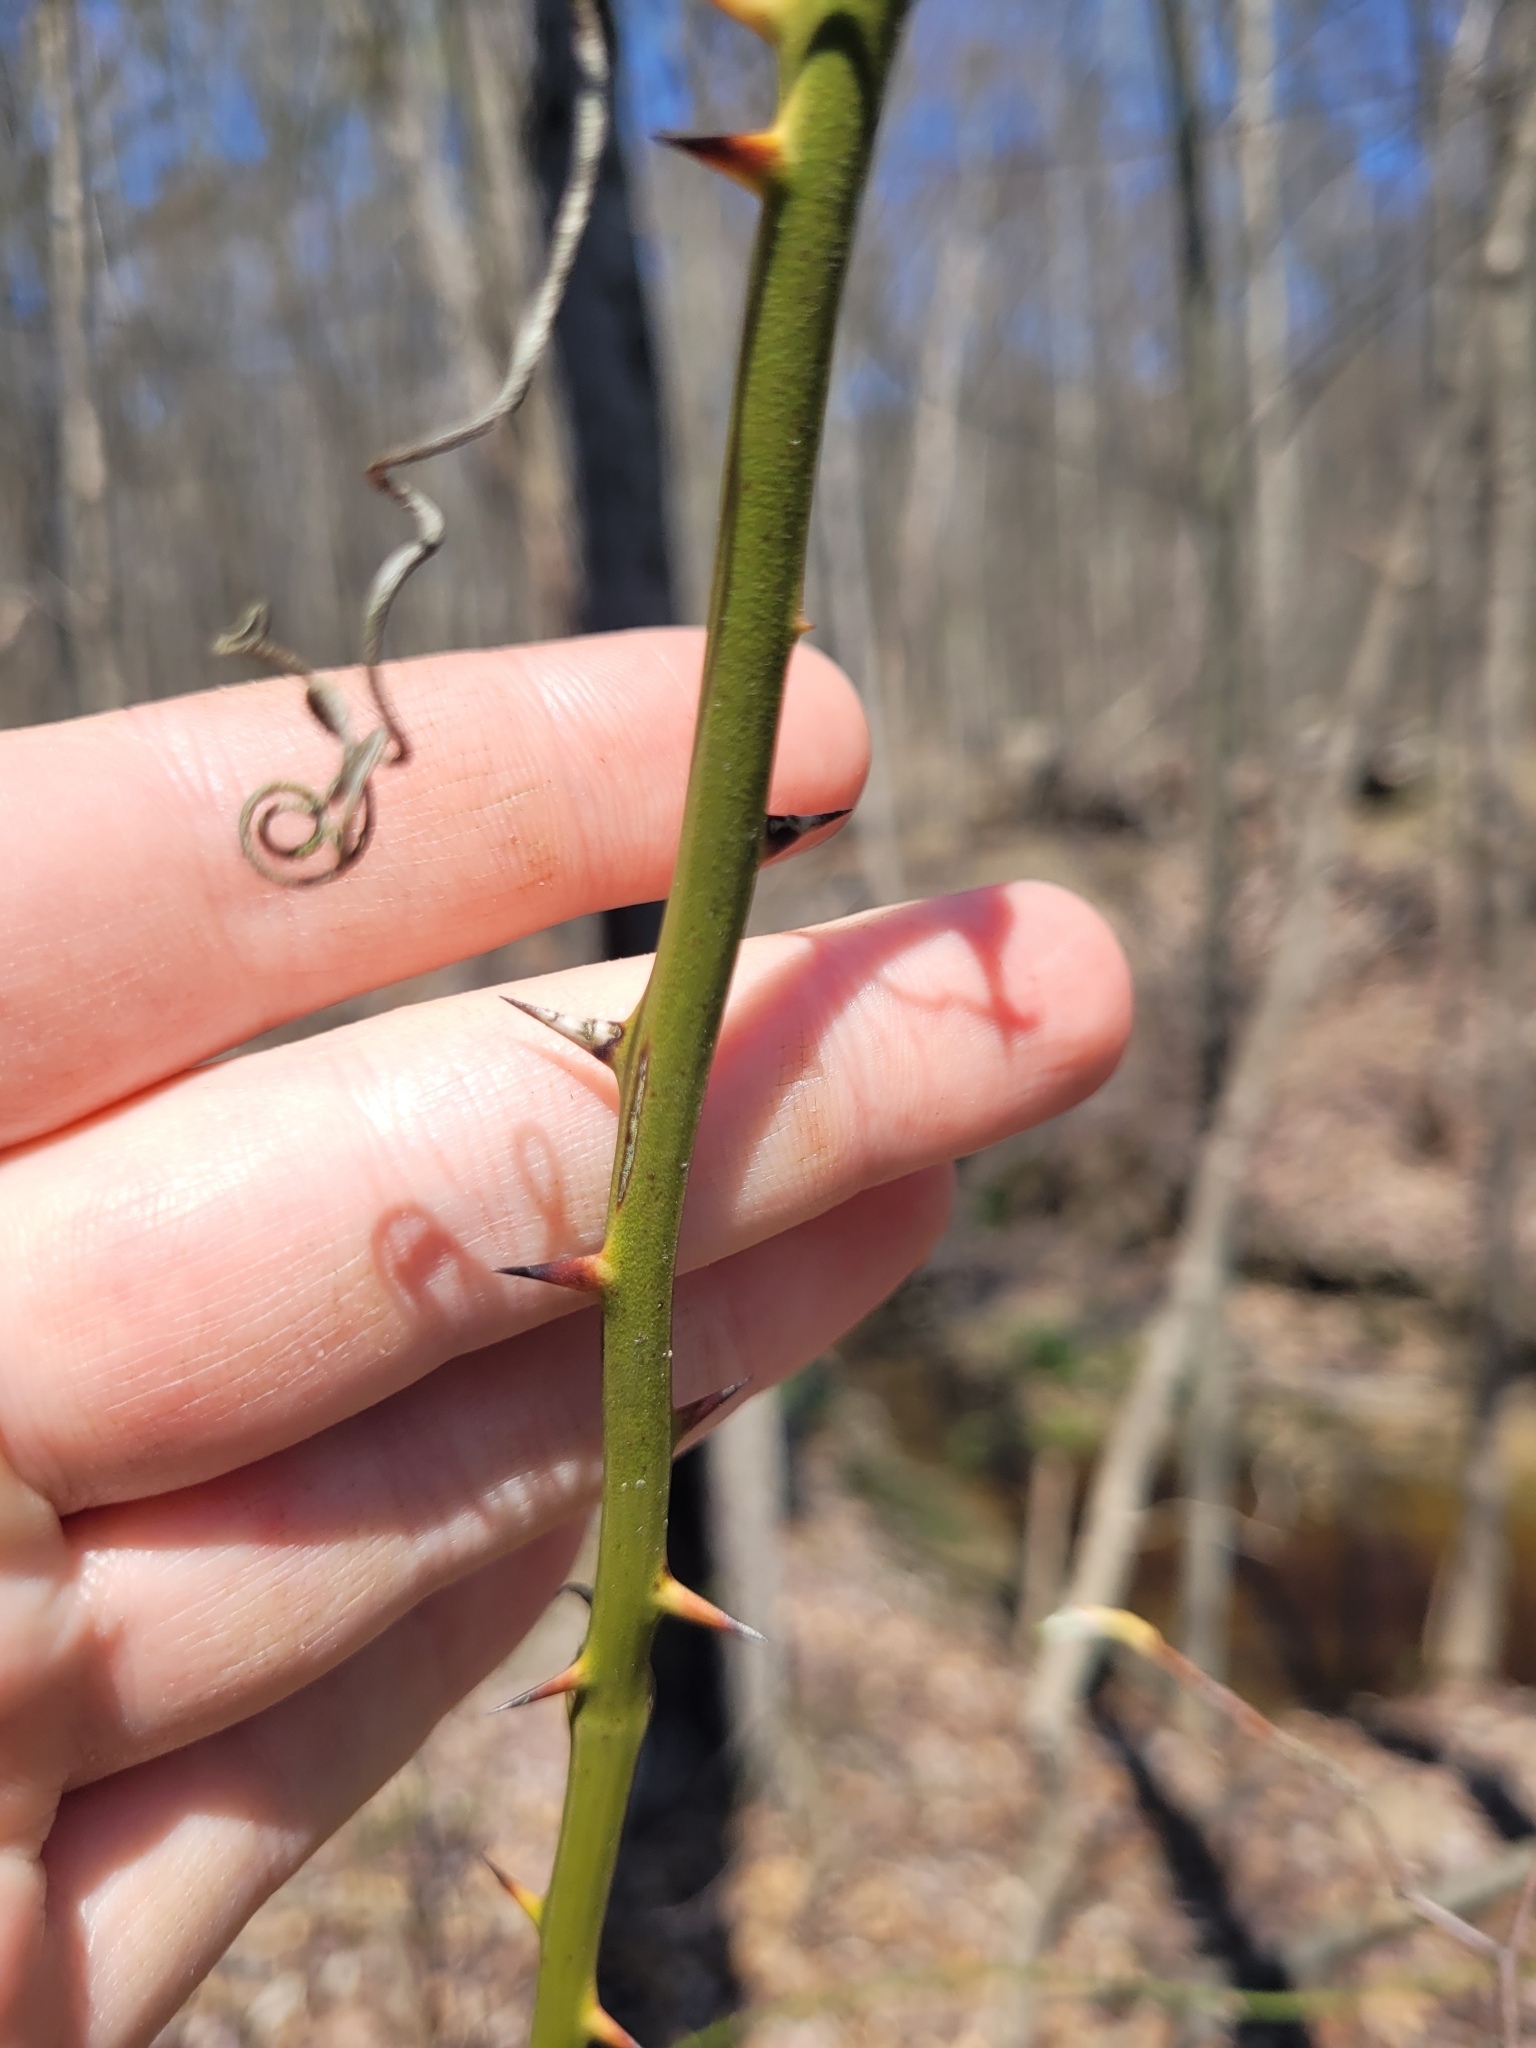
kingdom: Plantae
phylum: Tracheophyta
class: Liliopsida
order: Liliales
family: Smilacaceae
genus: Smilax
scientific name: Smilax rotundifolia
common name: Bullbriar
